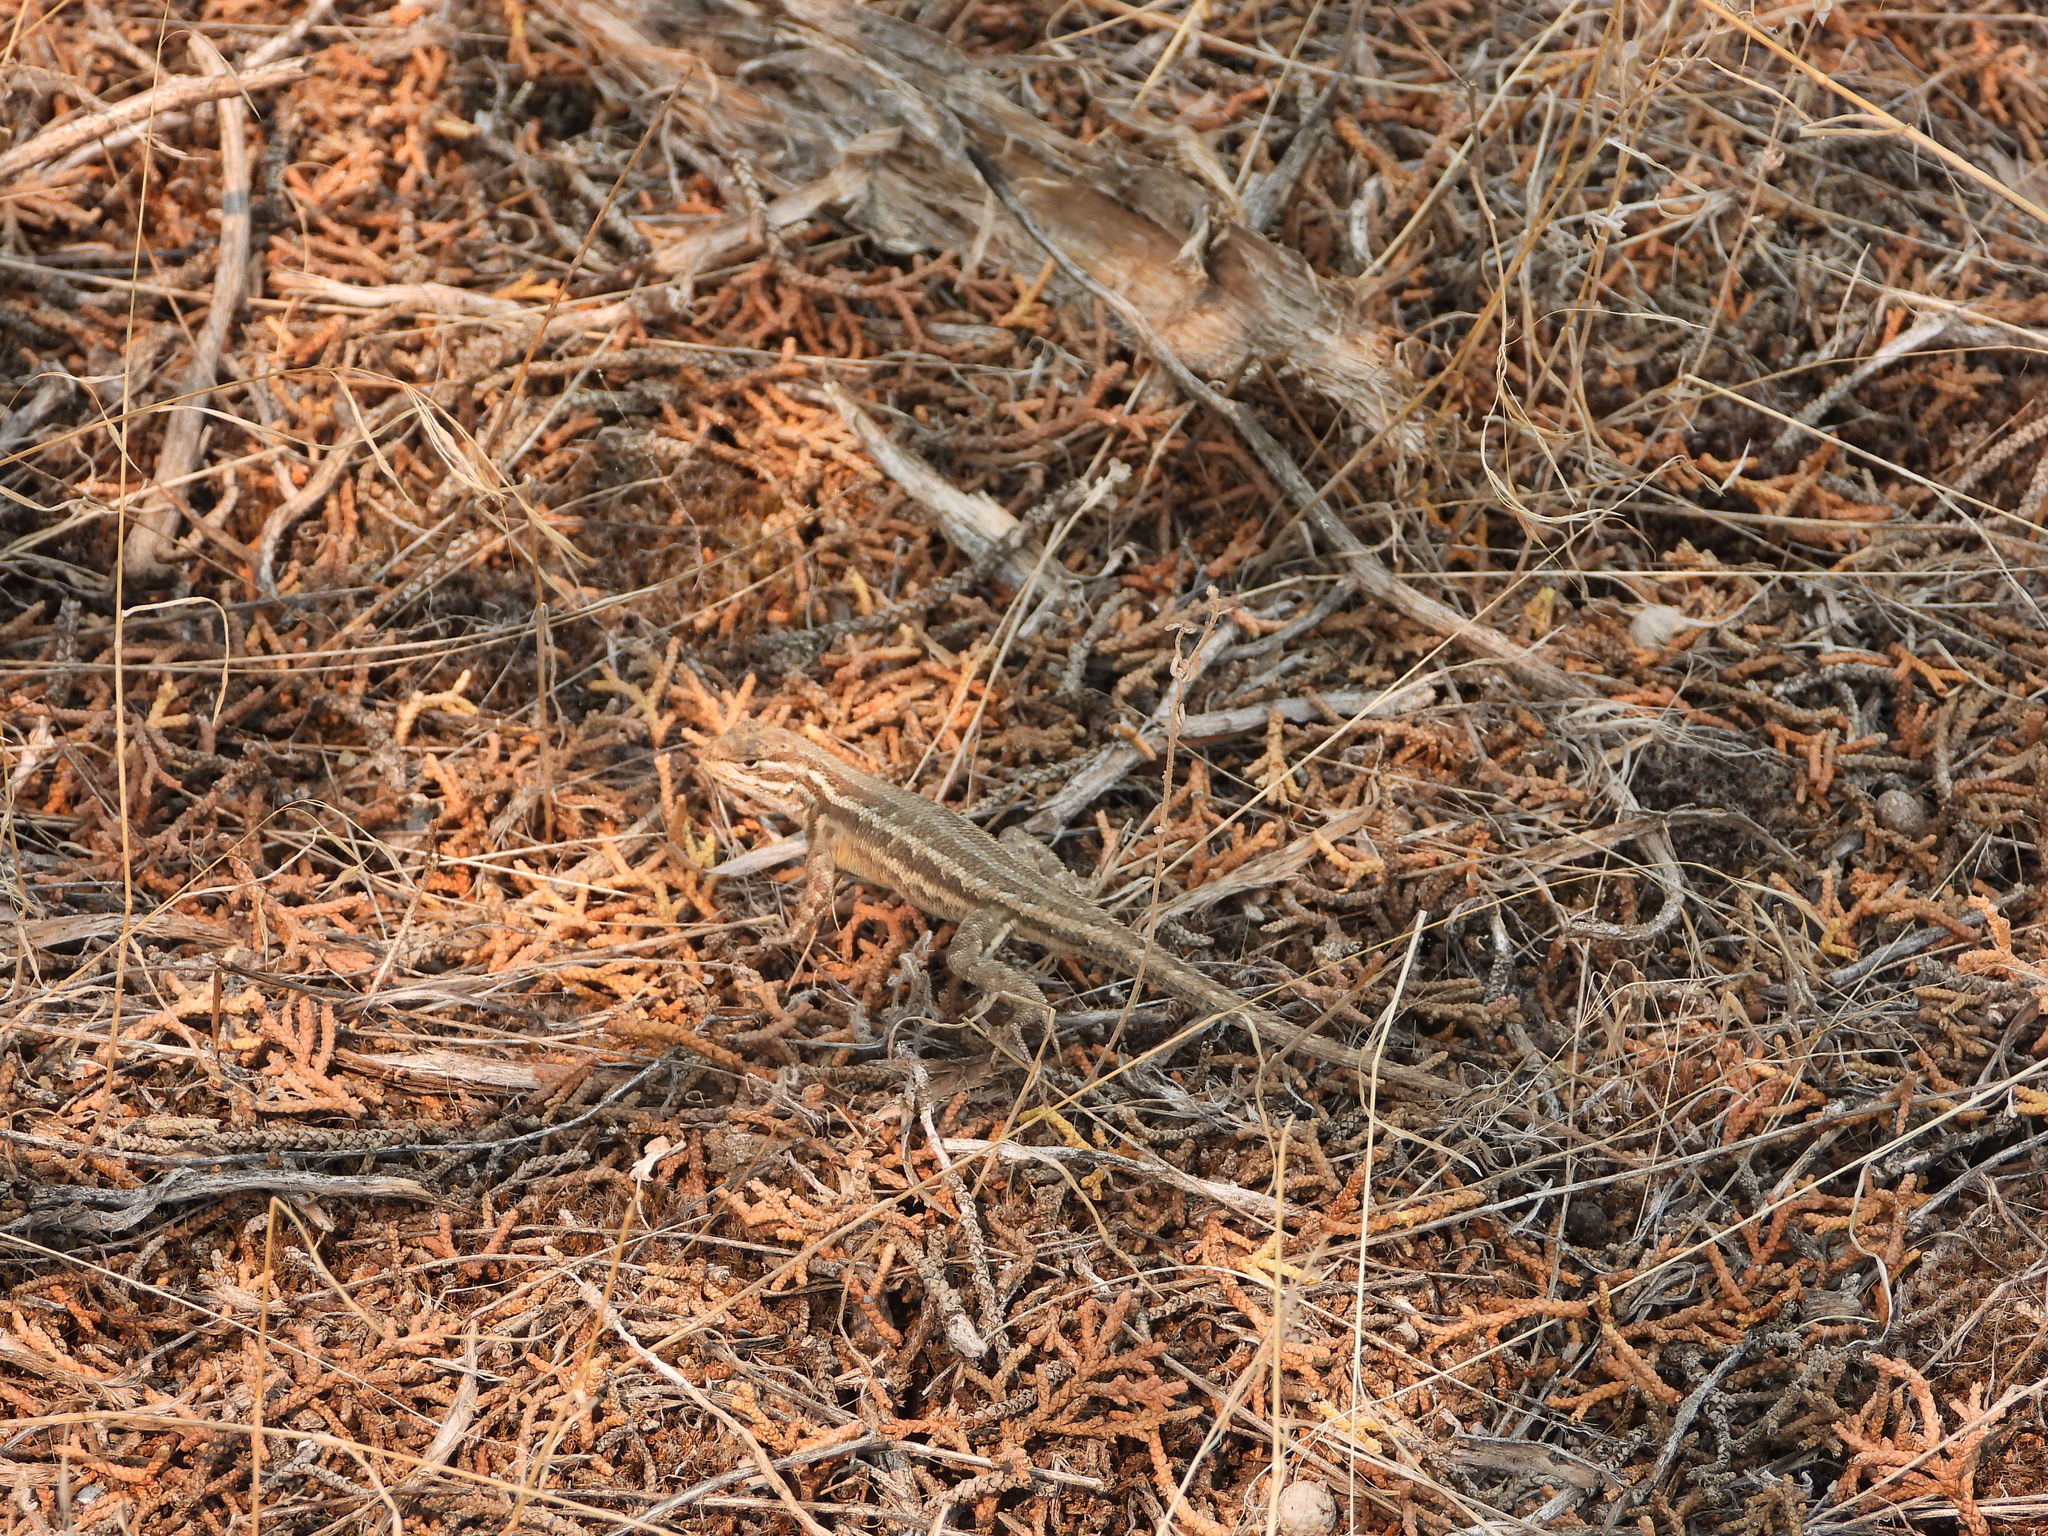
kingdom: Animalia
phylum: Chordata
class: Squamata
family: Phrynosomatidae
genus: Sceloporus
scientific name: Sceloporus graciosus
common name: Sagebrush lizard
